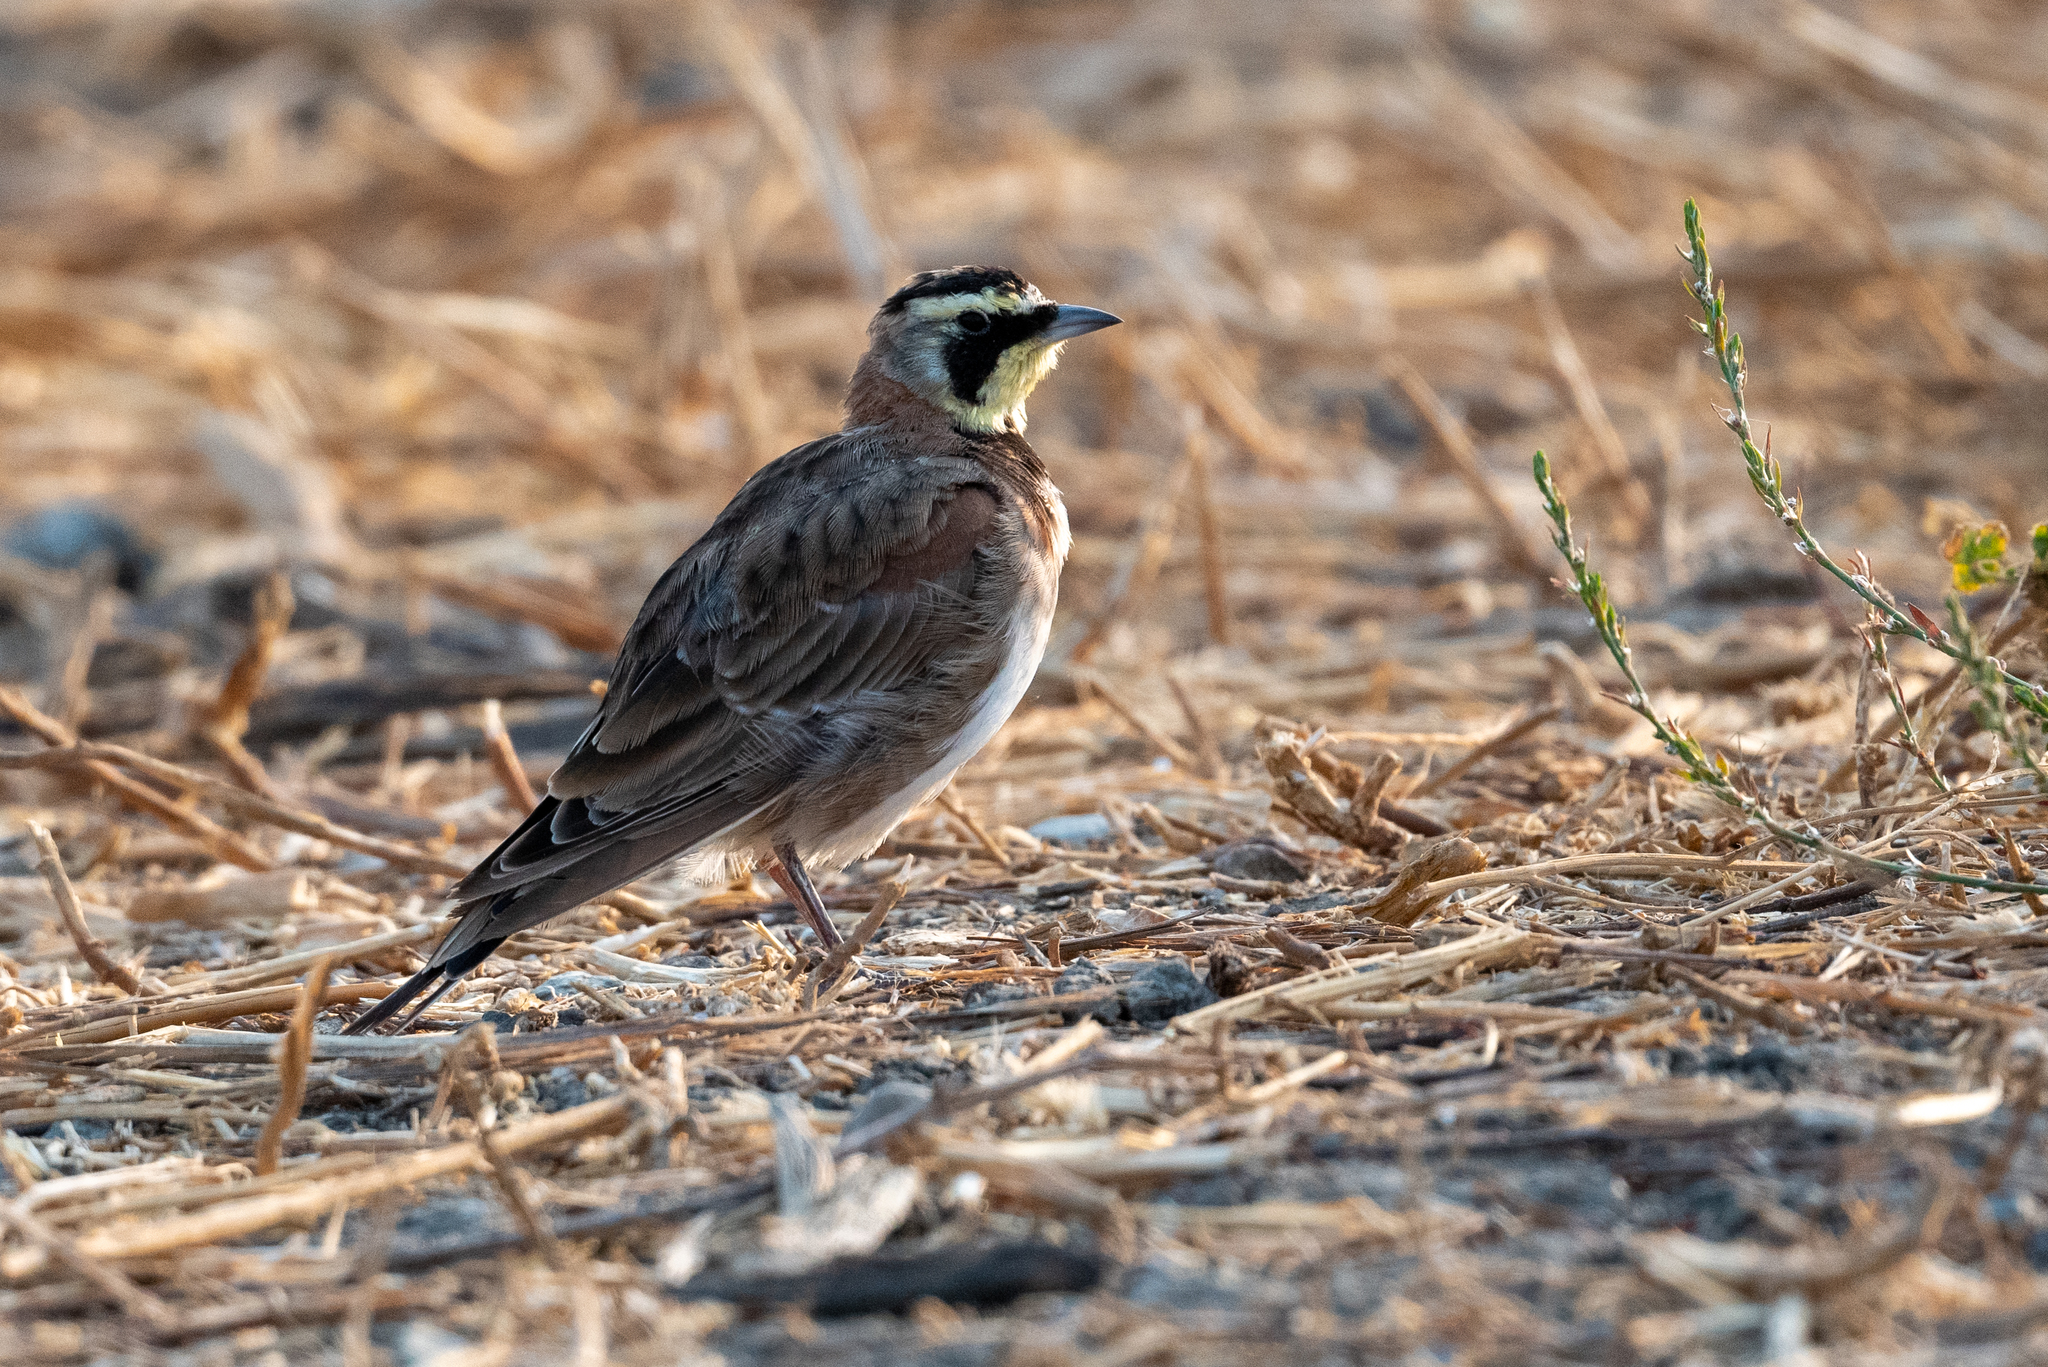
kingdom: Animalia
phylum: Chordata
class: Aves
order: Passeriformes
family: Alaudidae
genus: Eremophila
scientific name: Eremophila alpestris
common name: Horned lark
